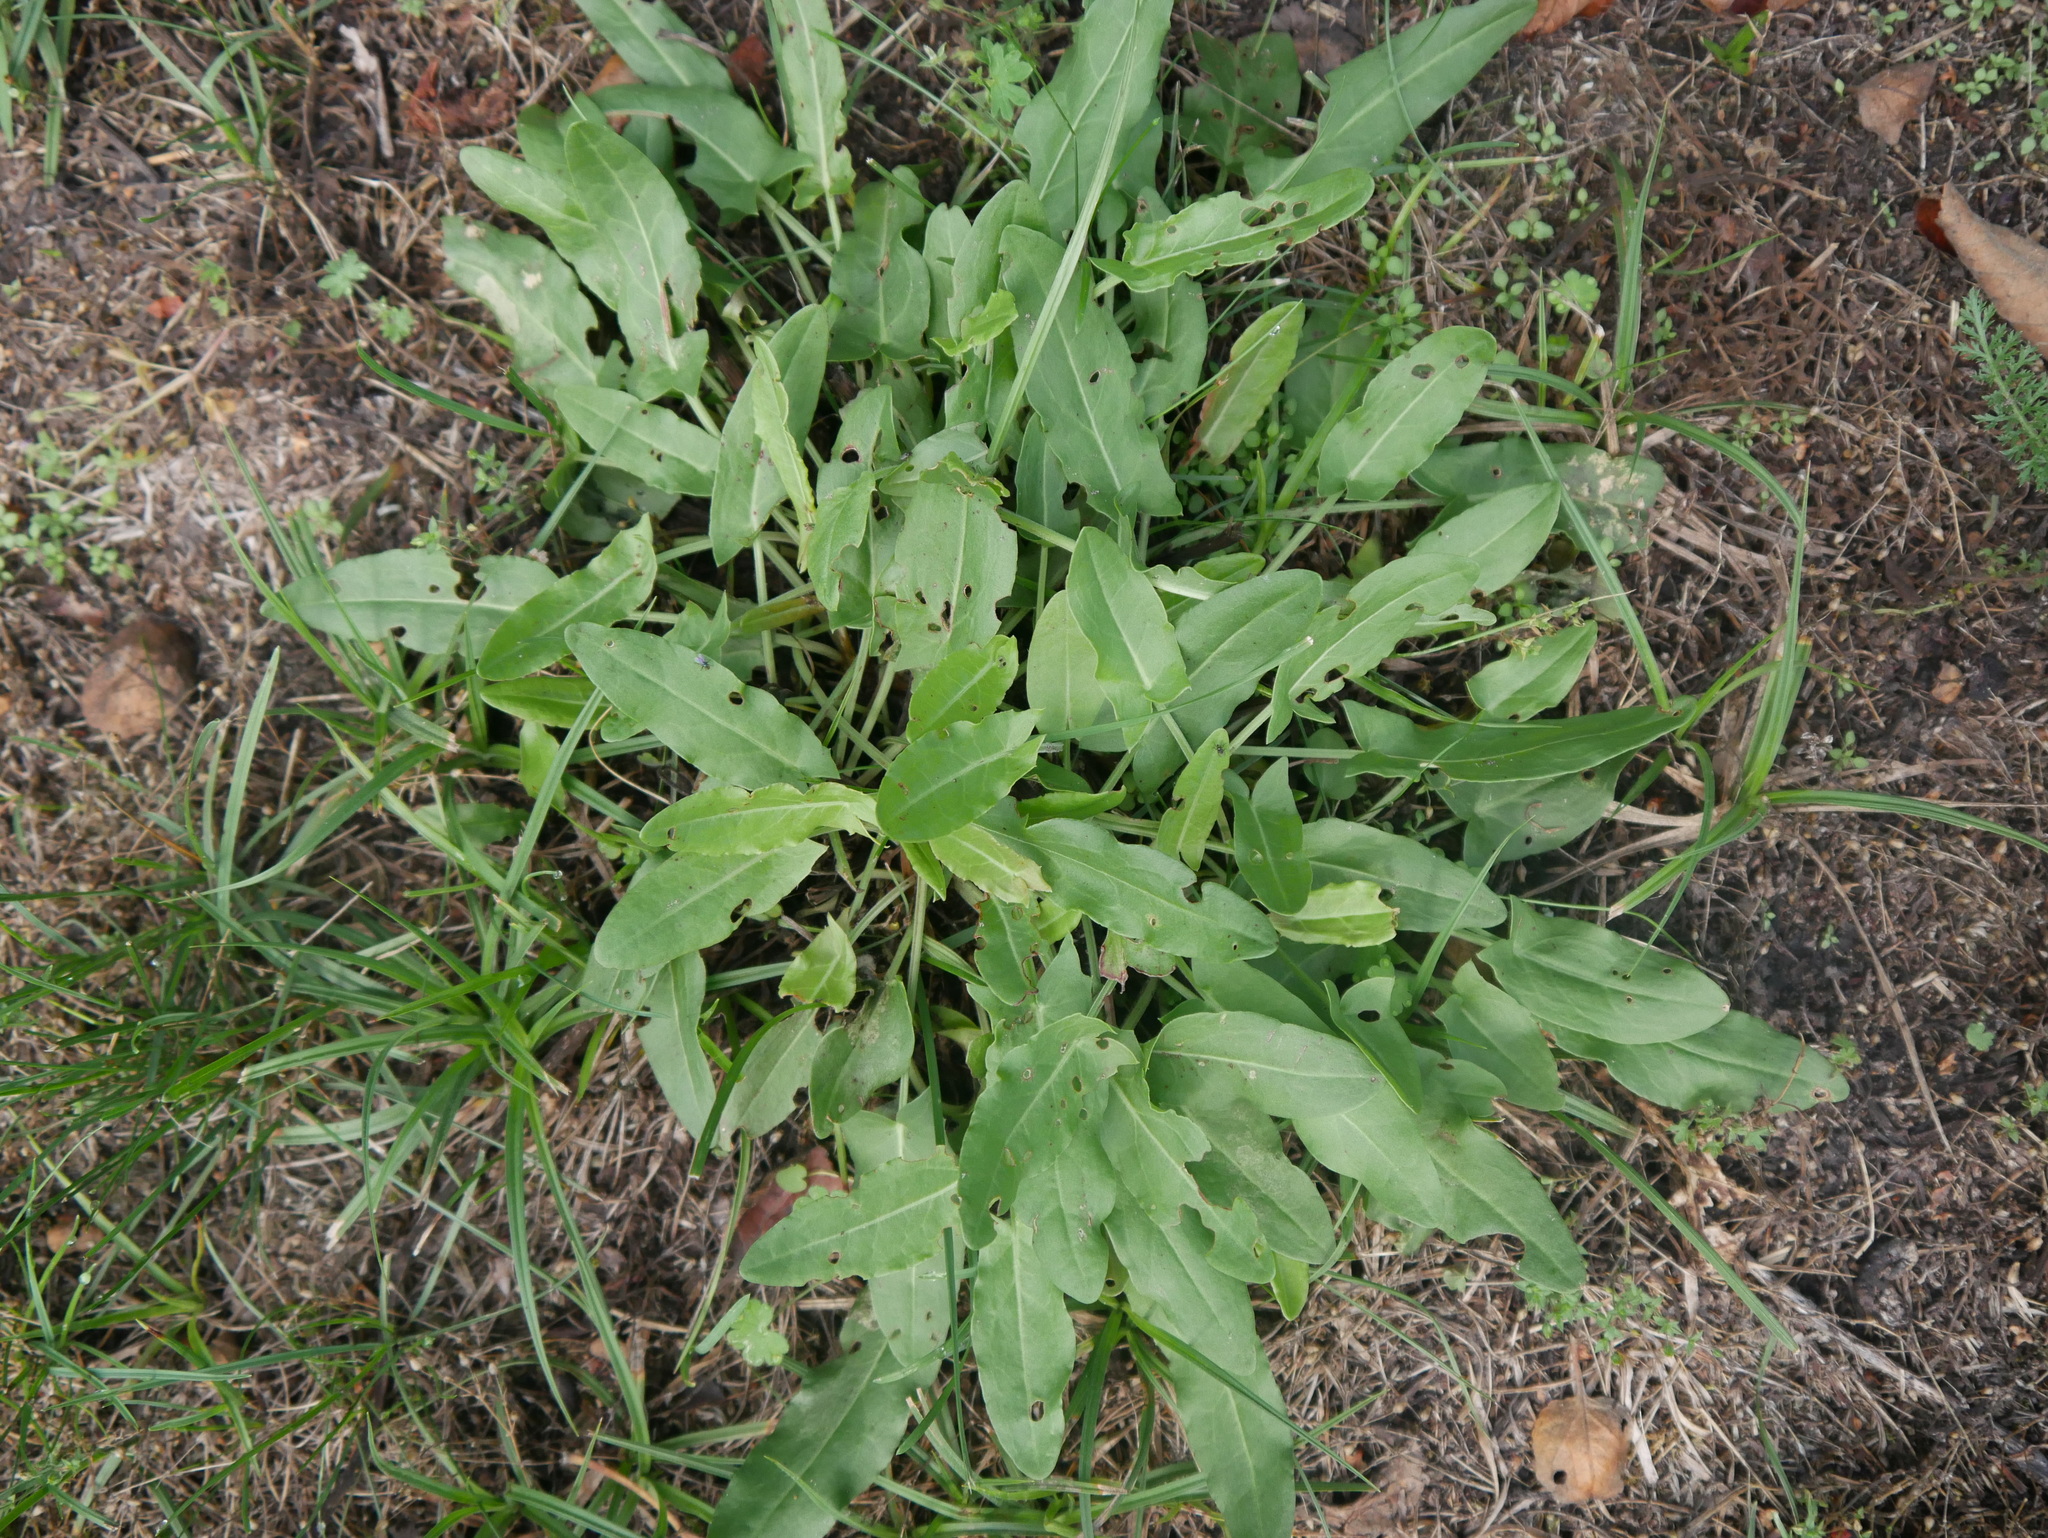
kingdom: Plantae
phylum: Tracheophyta
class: Magnoliopsida
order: Caryophyllales
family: Polygonaceae
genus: Rumex
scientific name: Rumex acetosa
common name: Garden sorrel
